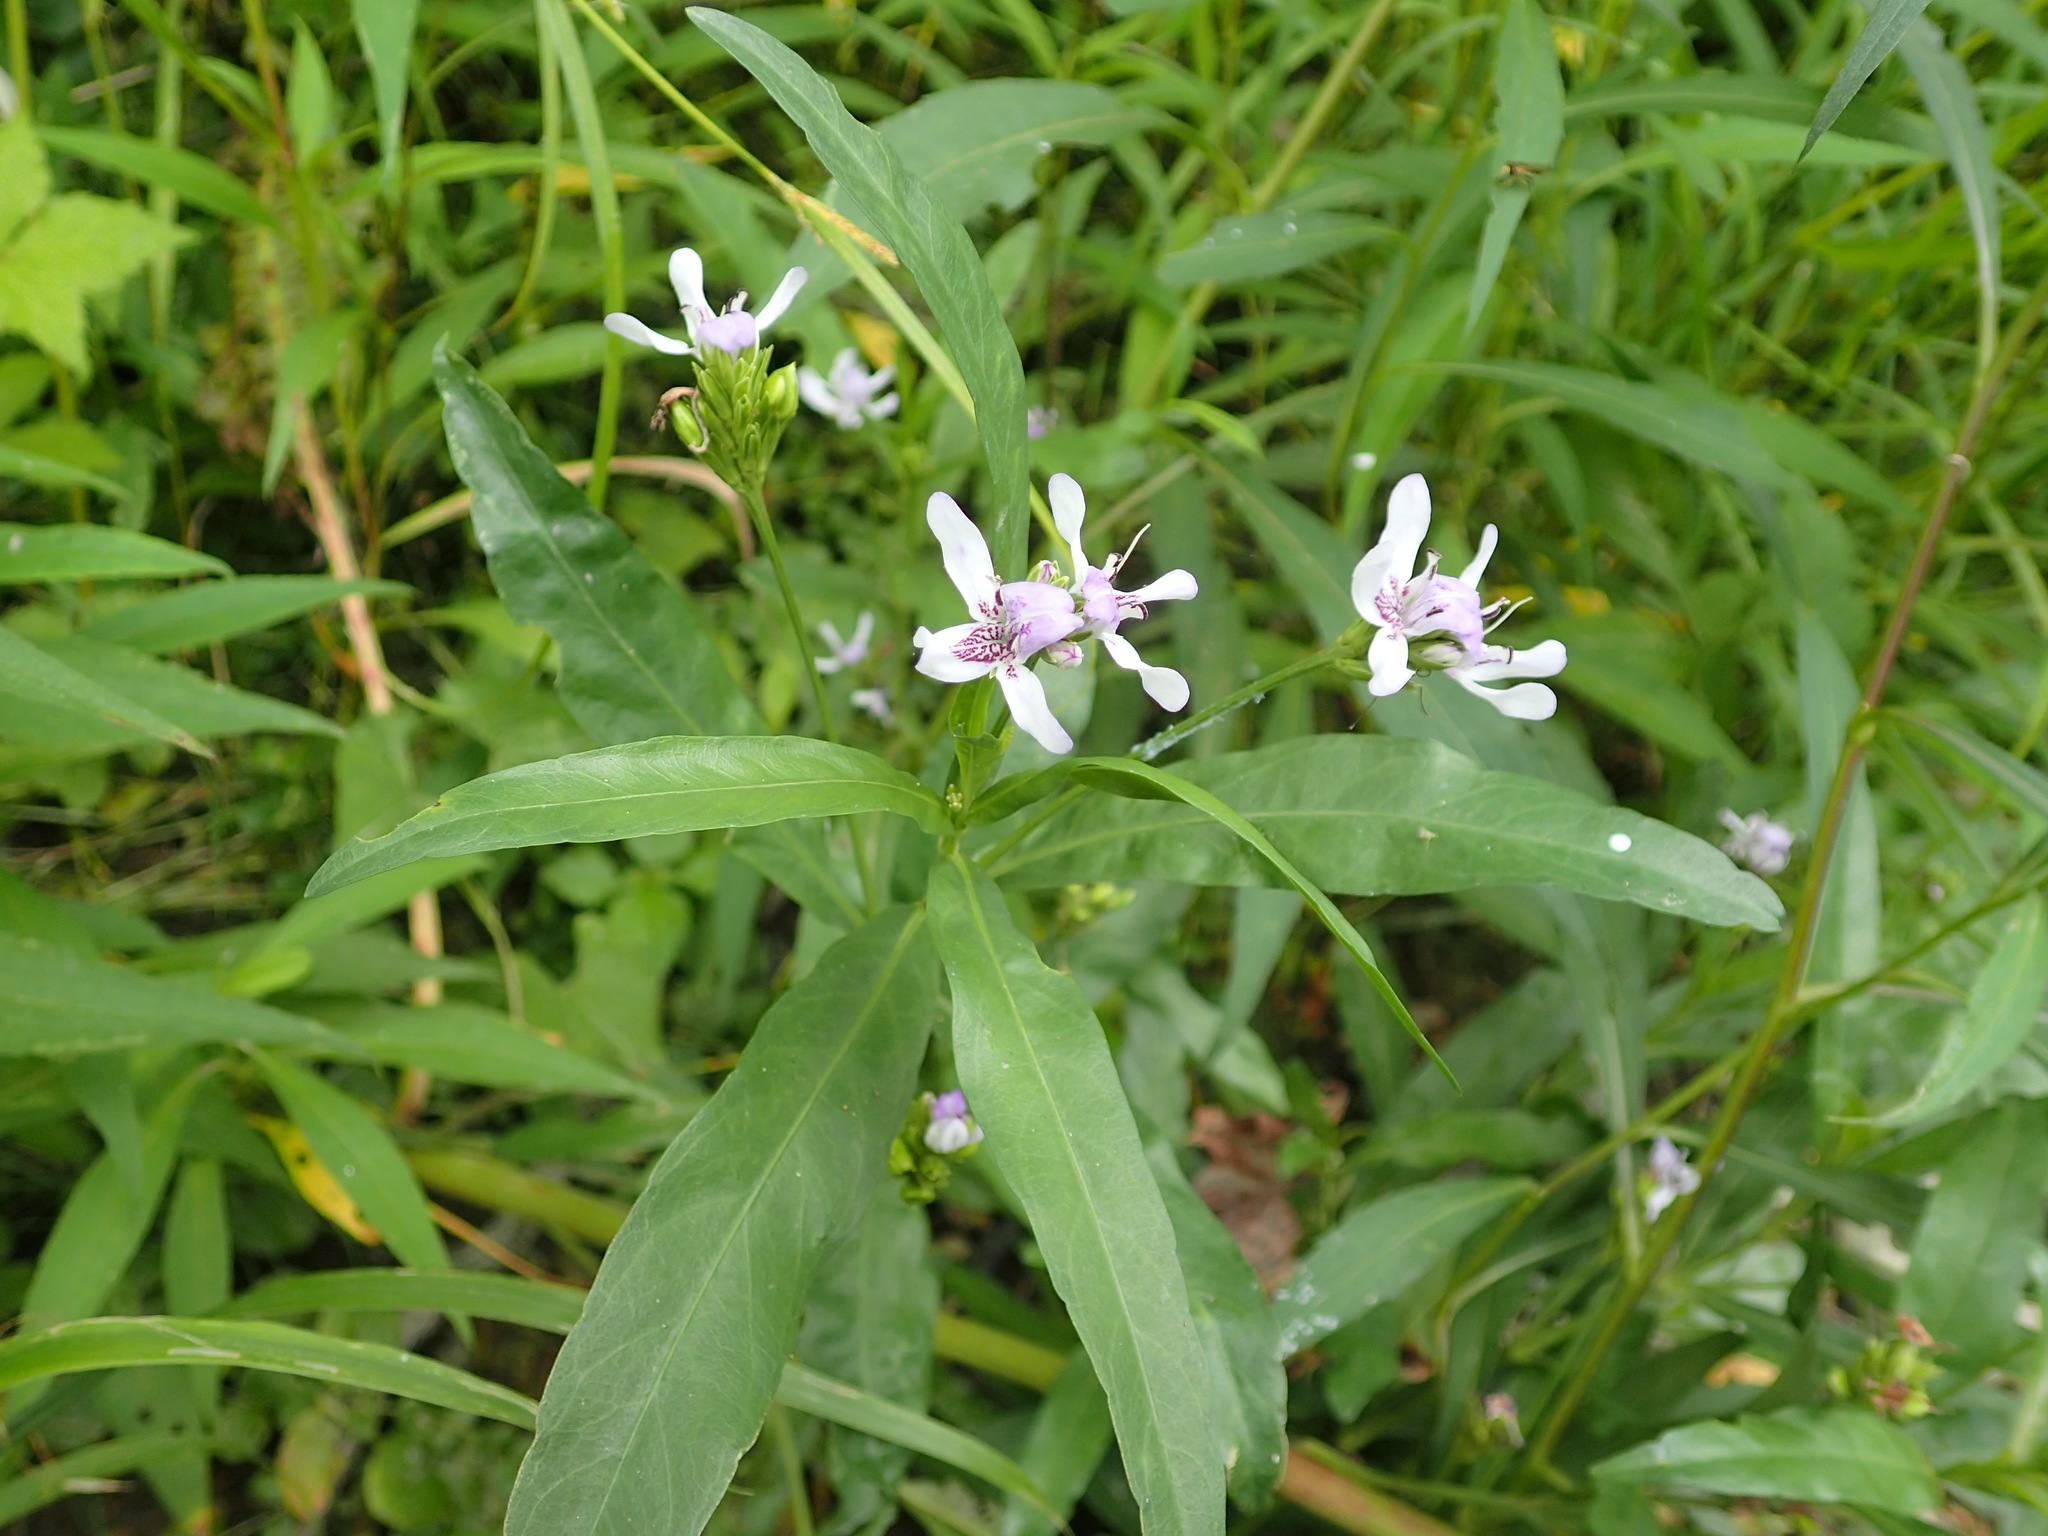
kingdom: Plantae
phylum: Tracheophyta
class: Magnoliopsida
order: Lamiales
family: Acanthaceae
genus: Dianthera
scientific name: Dianthera americana
